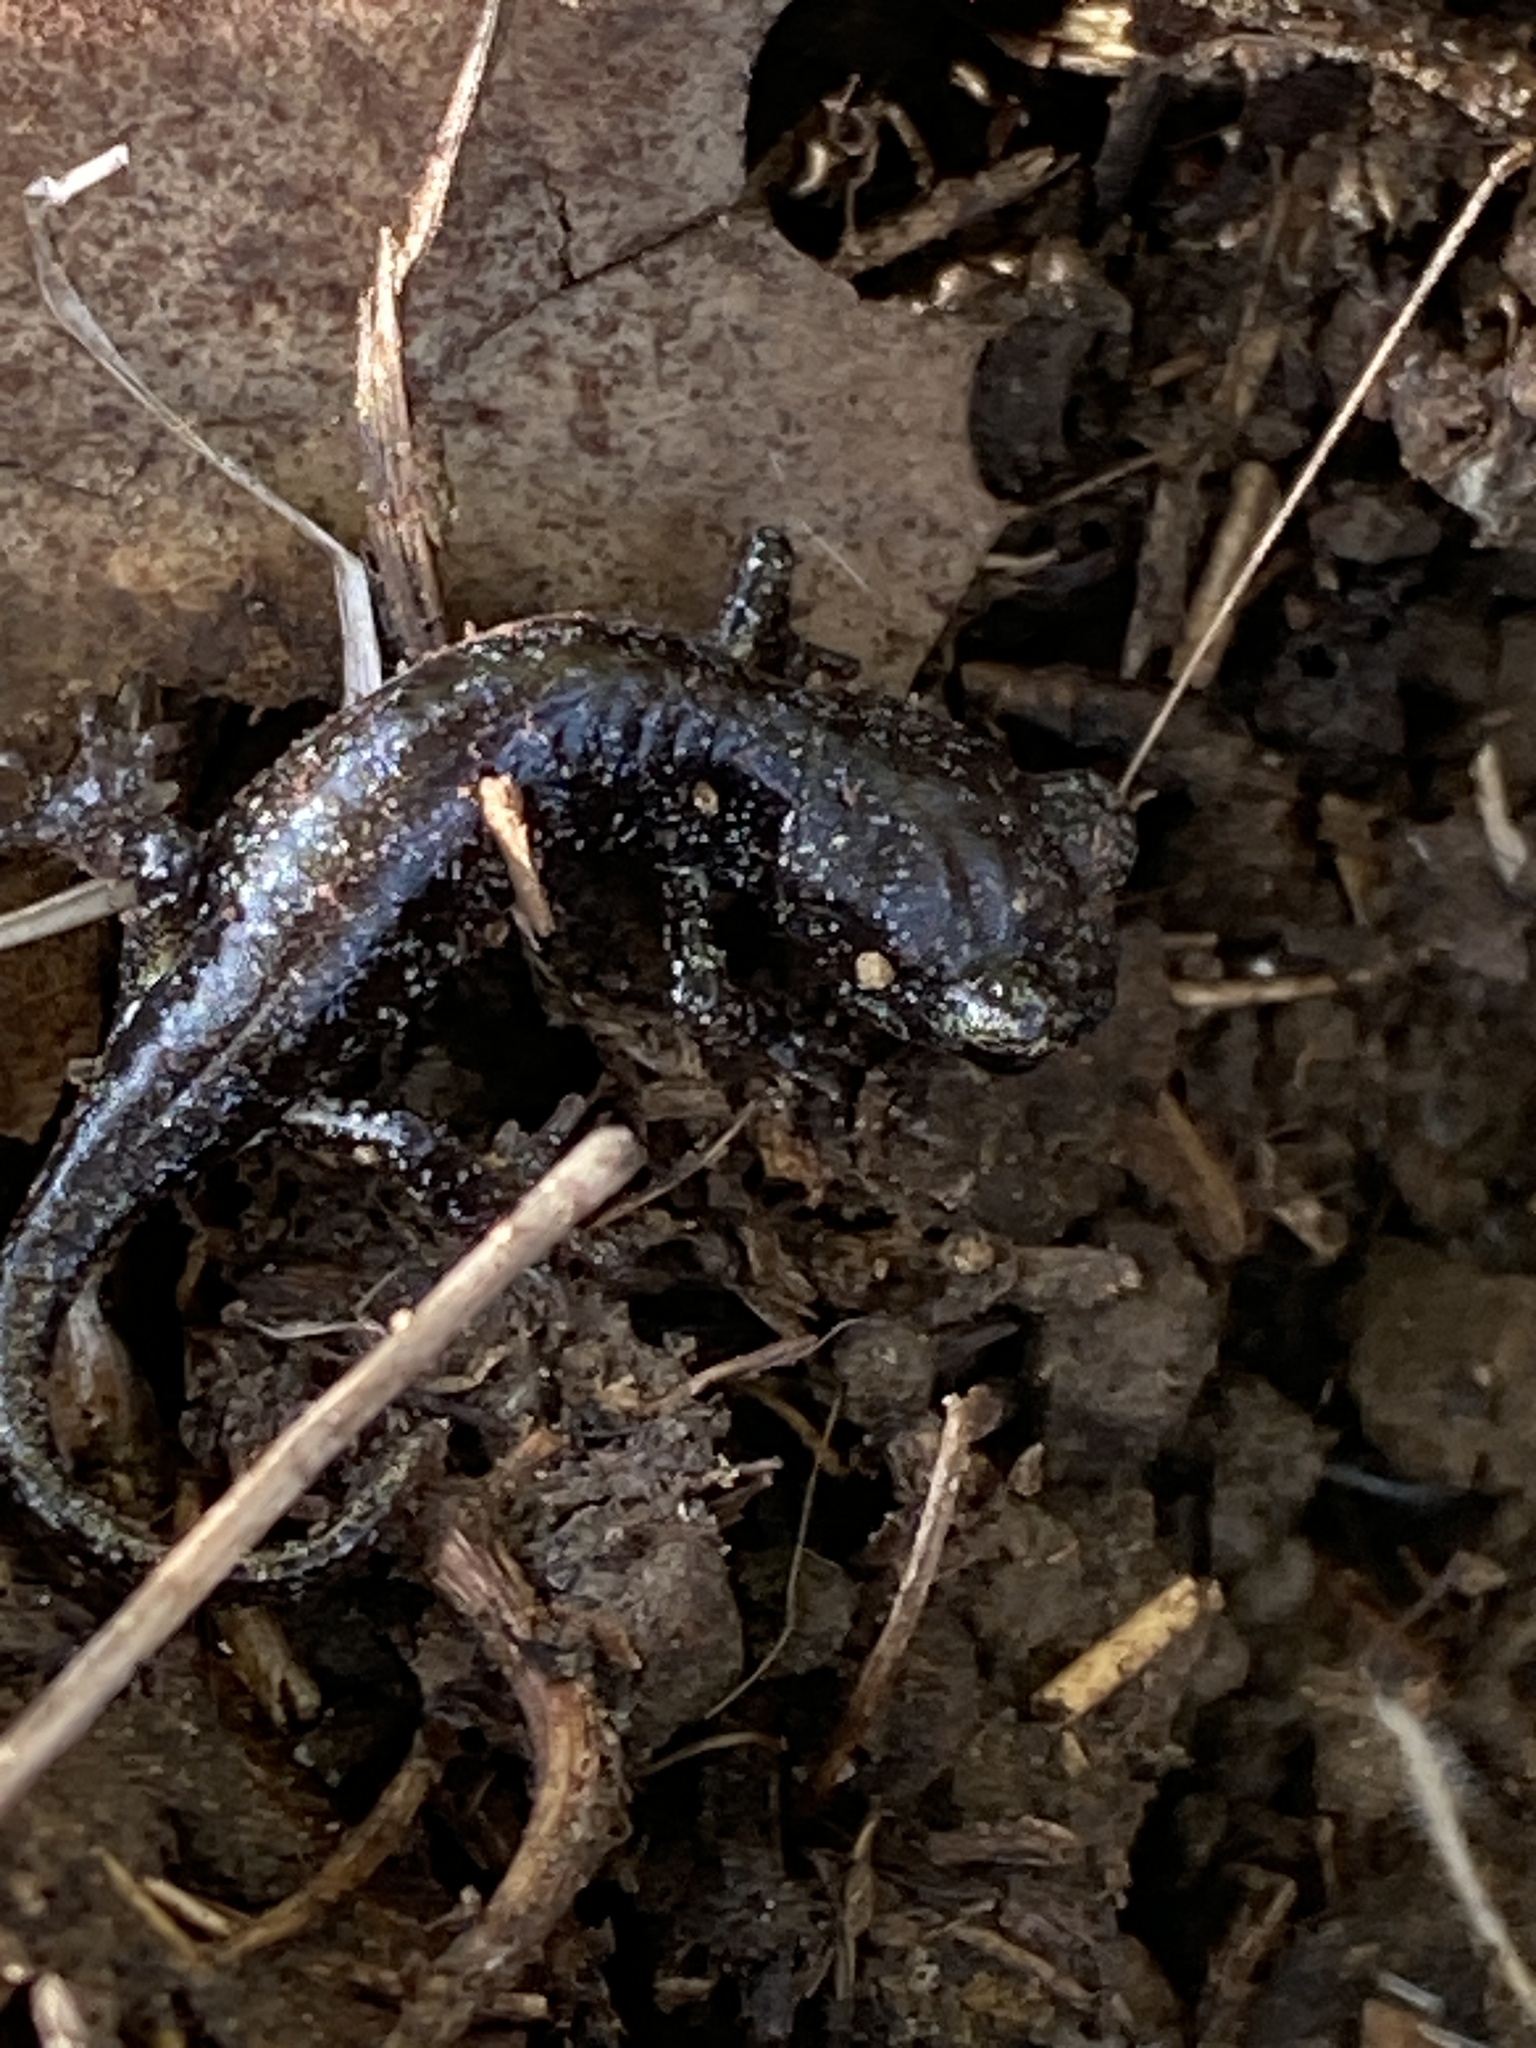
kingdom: Animalia
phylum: Chordata
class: Amphibia
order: Caudata
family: Plethodontidae
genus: Aneides
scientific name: Aneides lugubris
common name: Arboreal salamander
